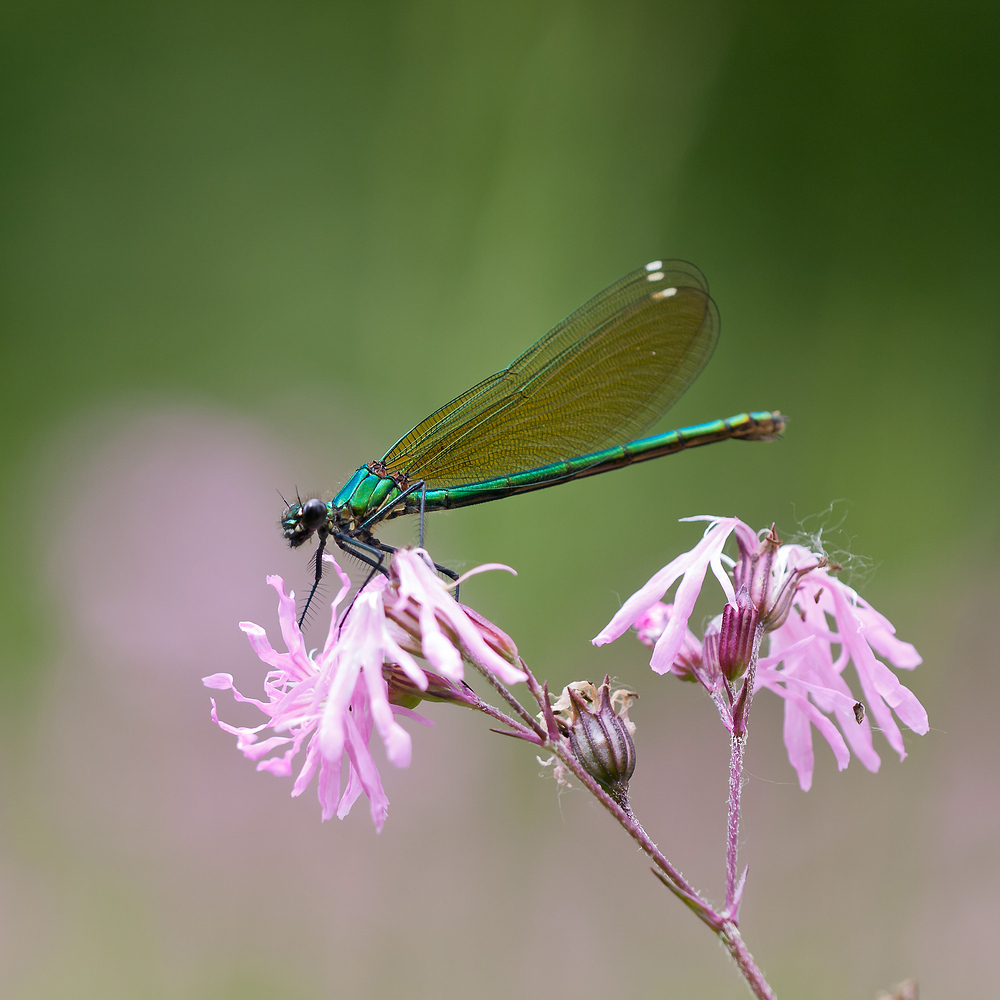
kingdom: Animalia
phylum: Arthropoda
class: Insecta
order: Odonata
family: Calopterygidae
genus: Calopteryx
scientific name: Calopteryx splendens
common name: Banded demoiselle
